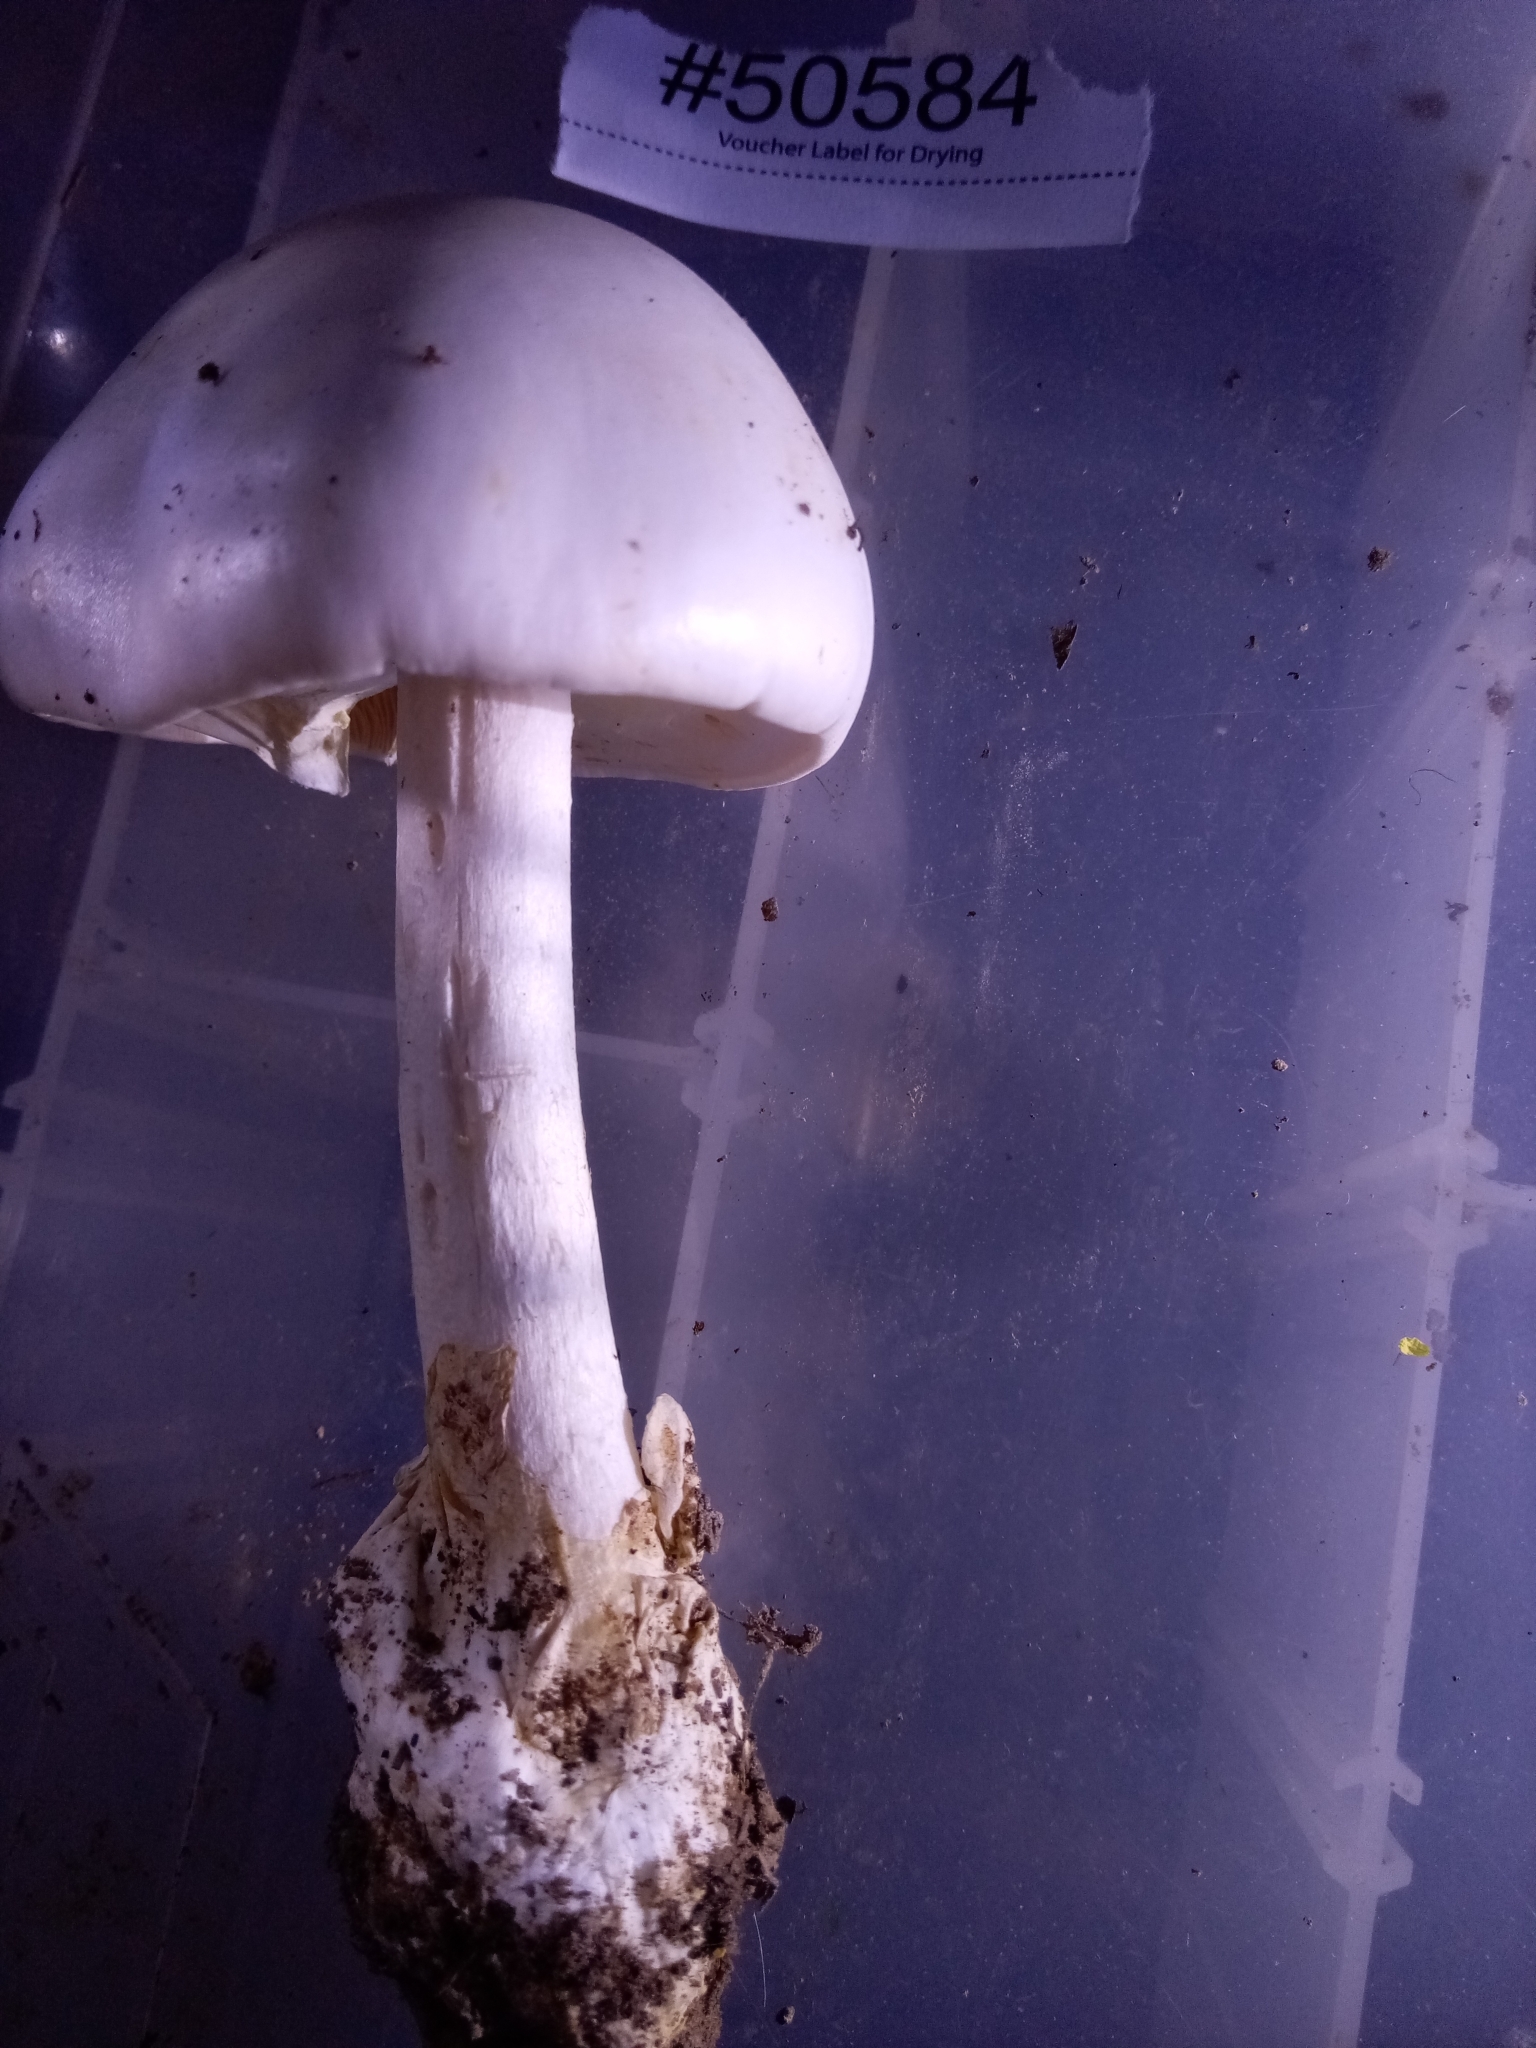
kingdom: Fungi
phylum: Basidiomycota
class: Agaricomycetes
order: Agaricales
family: Amanitaceae
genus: Amanita
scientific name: Amanita magnivelaris
